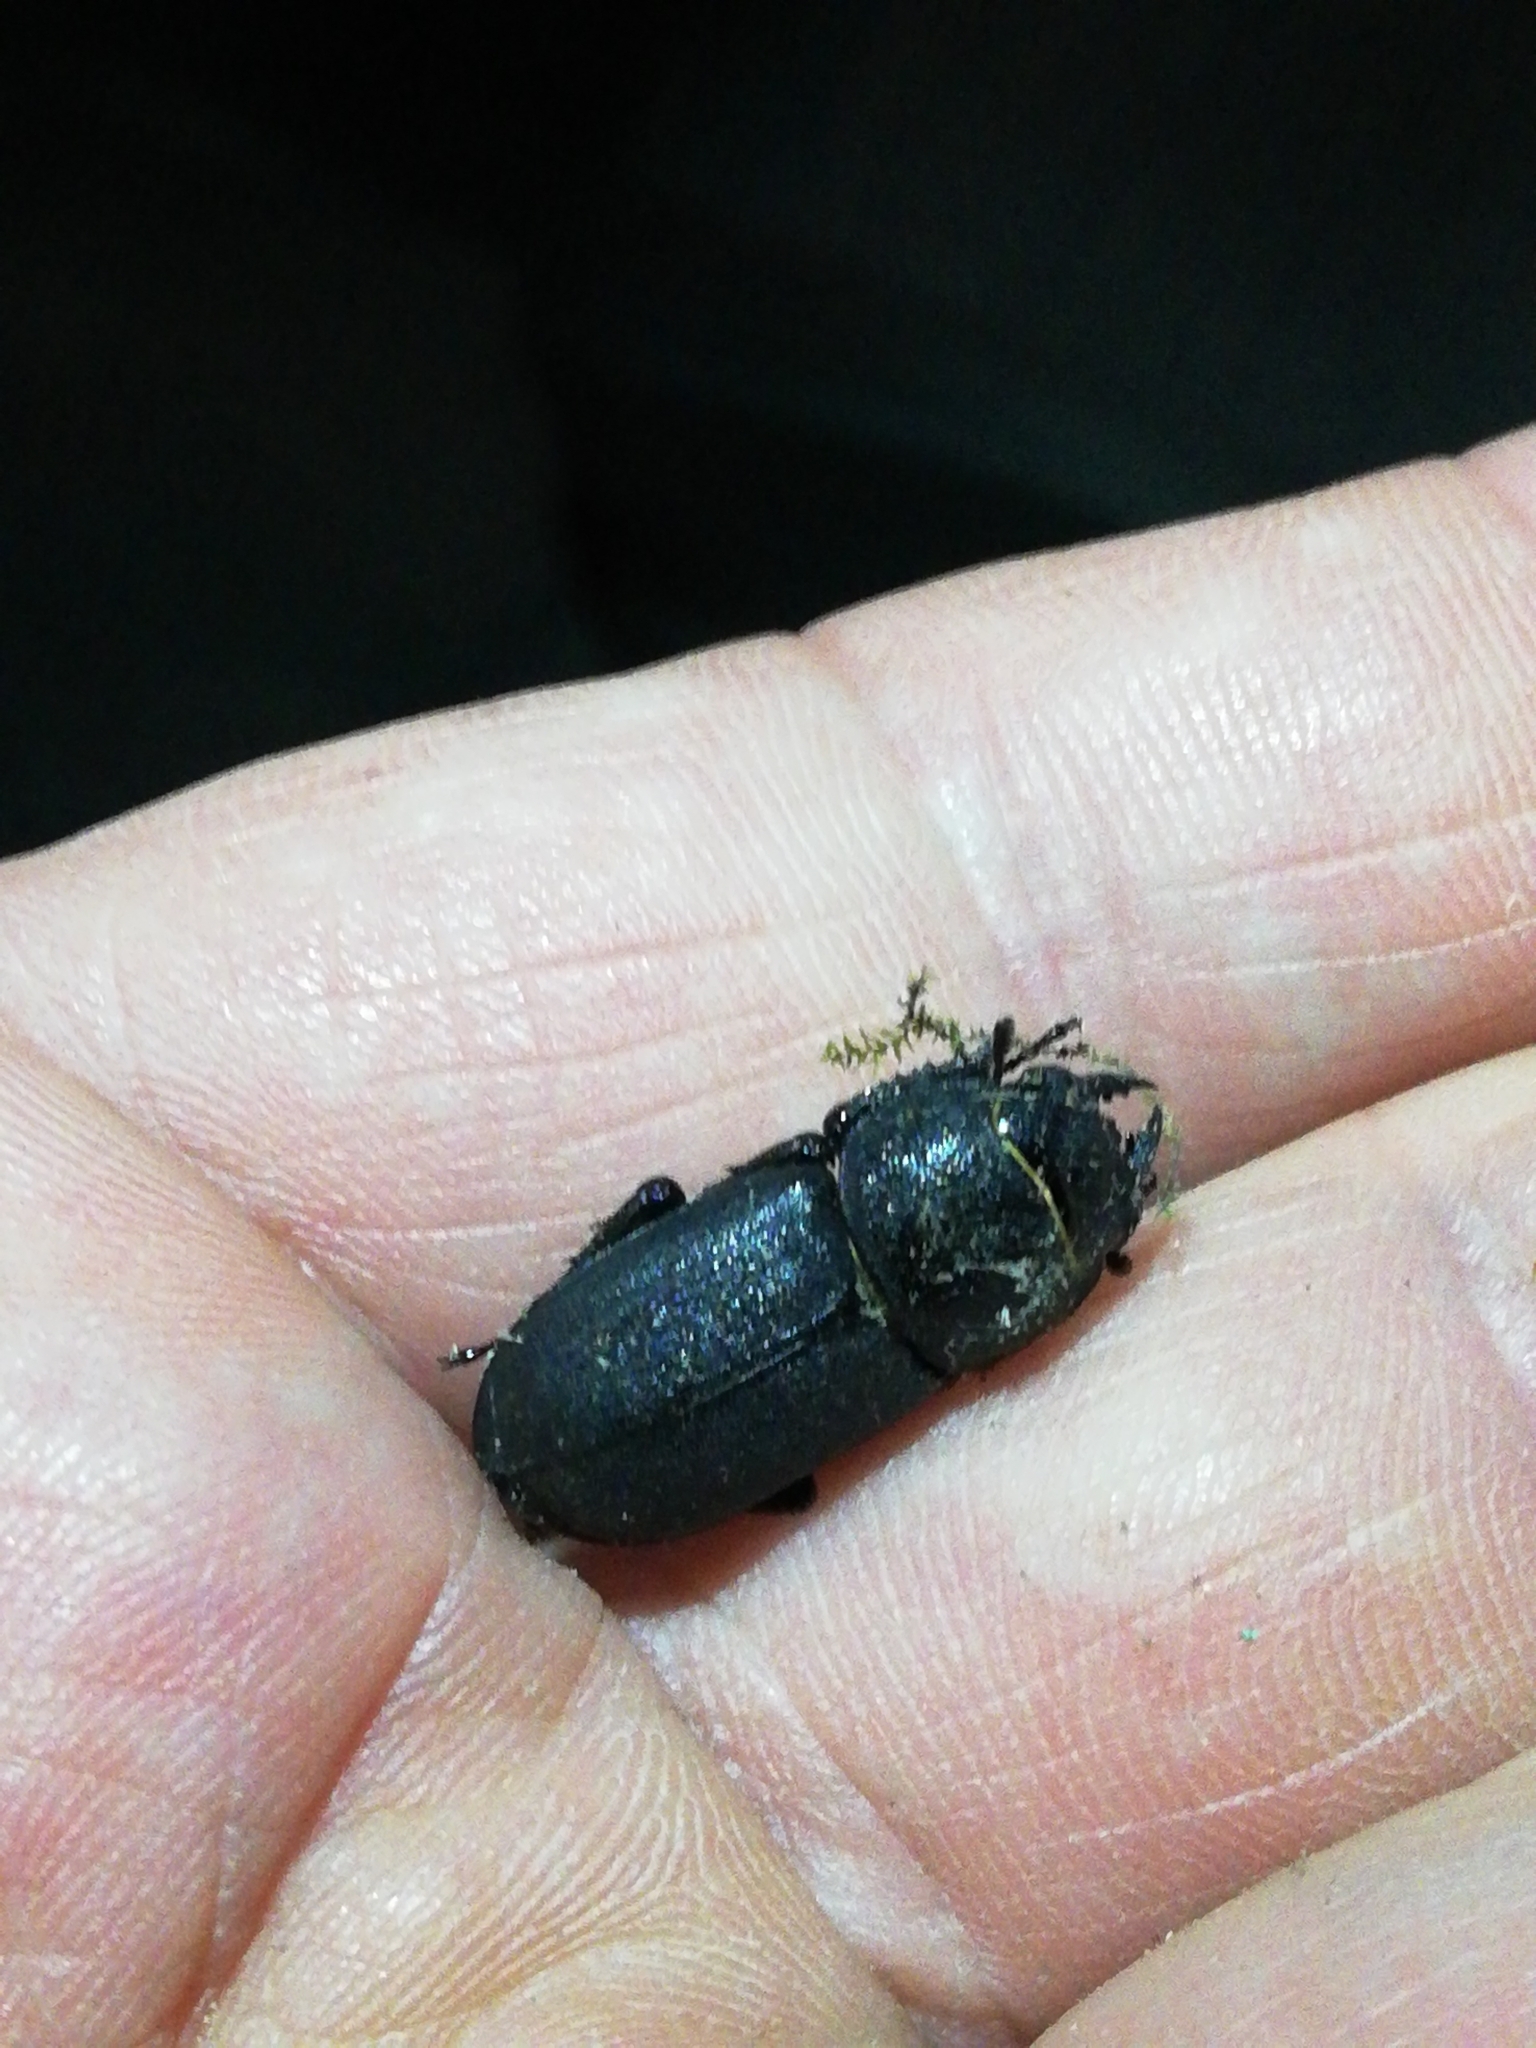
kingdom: Animalia
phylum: Arthropoda
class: Insecta
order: Coleoptera
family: Lucanidae
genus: Dorcus
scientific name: Dorcus parallelipipedus
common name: Lesser stag beetle
